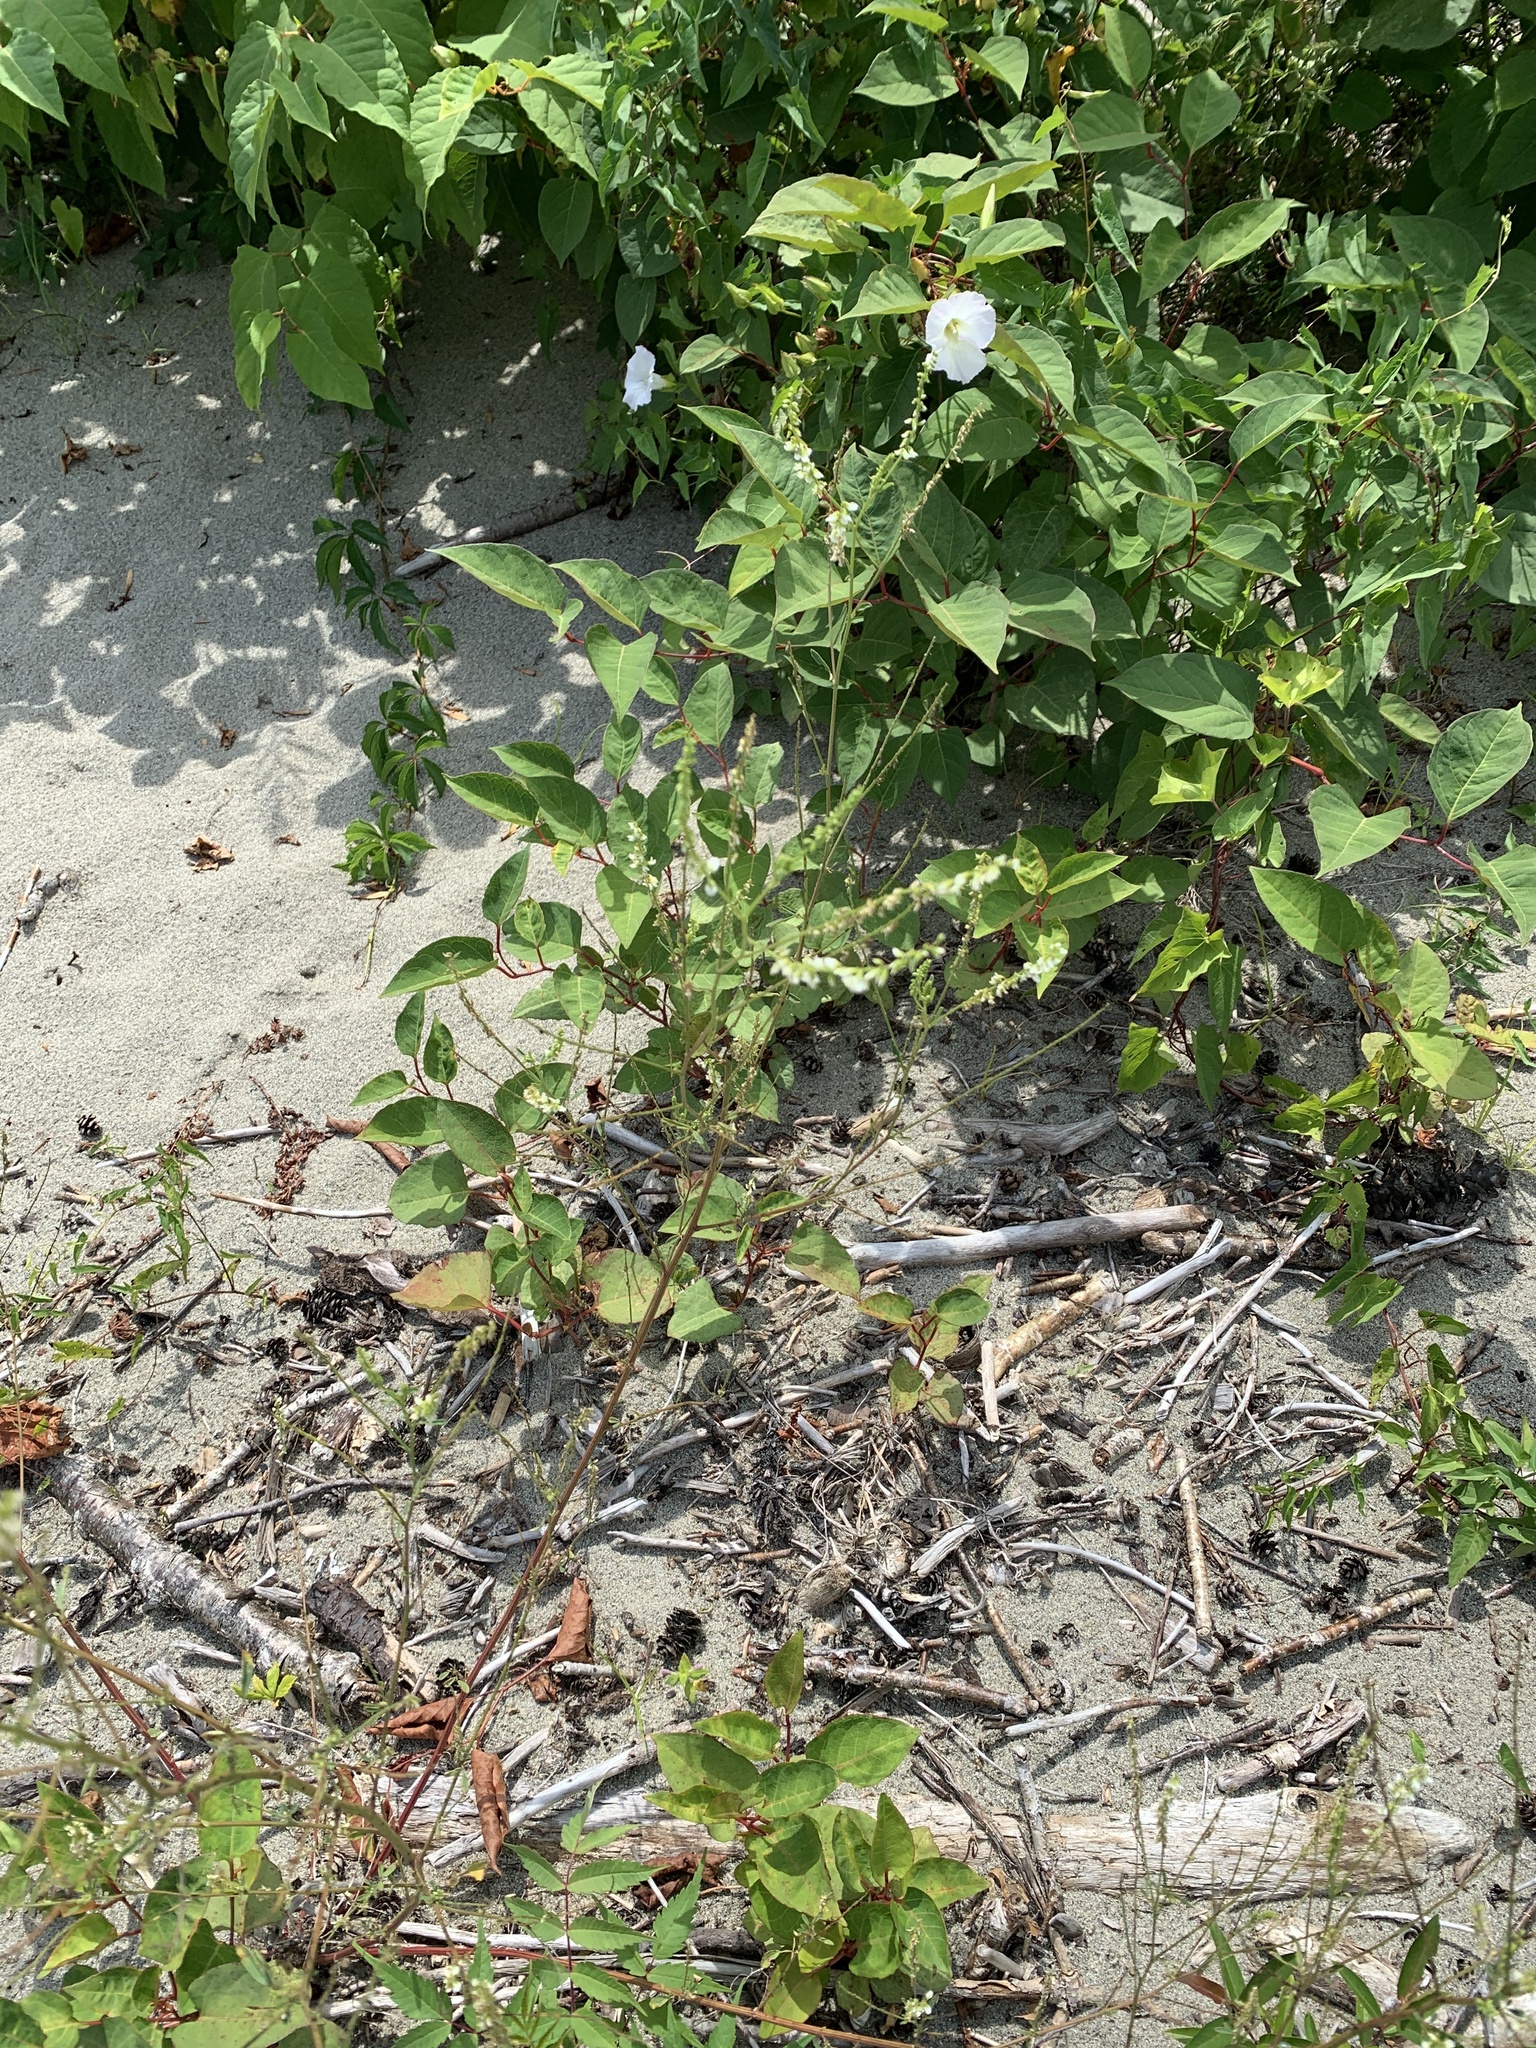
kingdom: Plantae
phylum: Tracheophyta
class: Magnoliopsida
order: Fabales
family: Fabaceae
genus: Melilotus
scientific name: Melilotus albus
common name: White melilot
